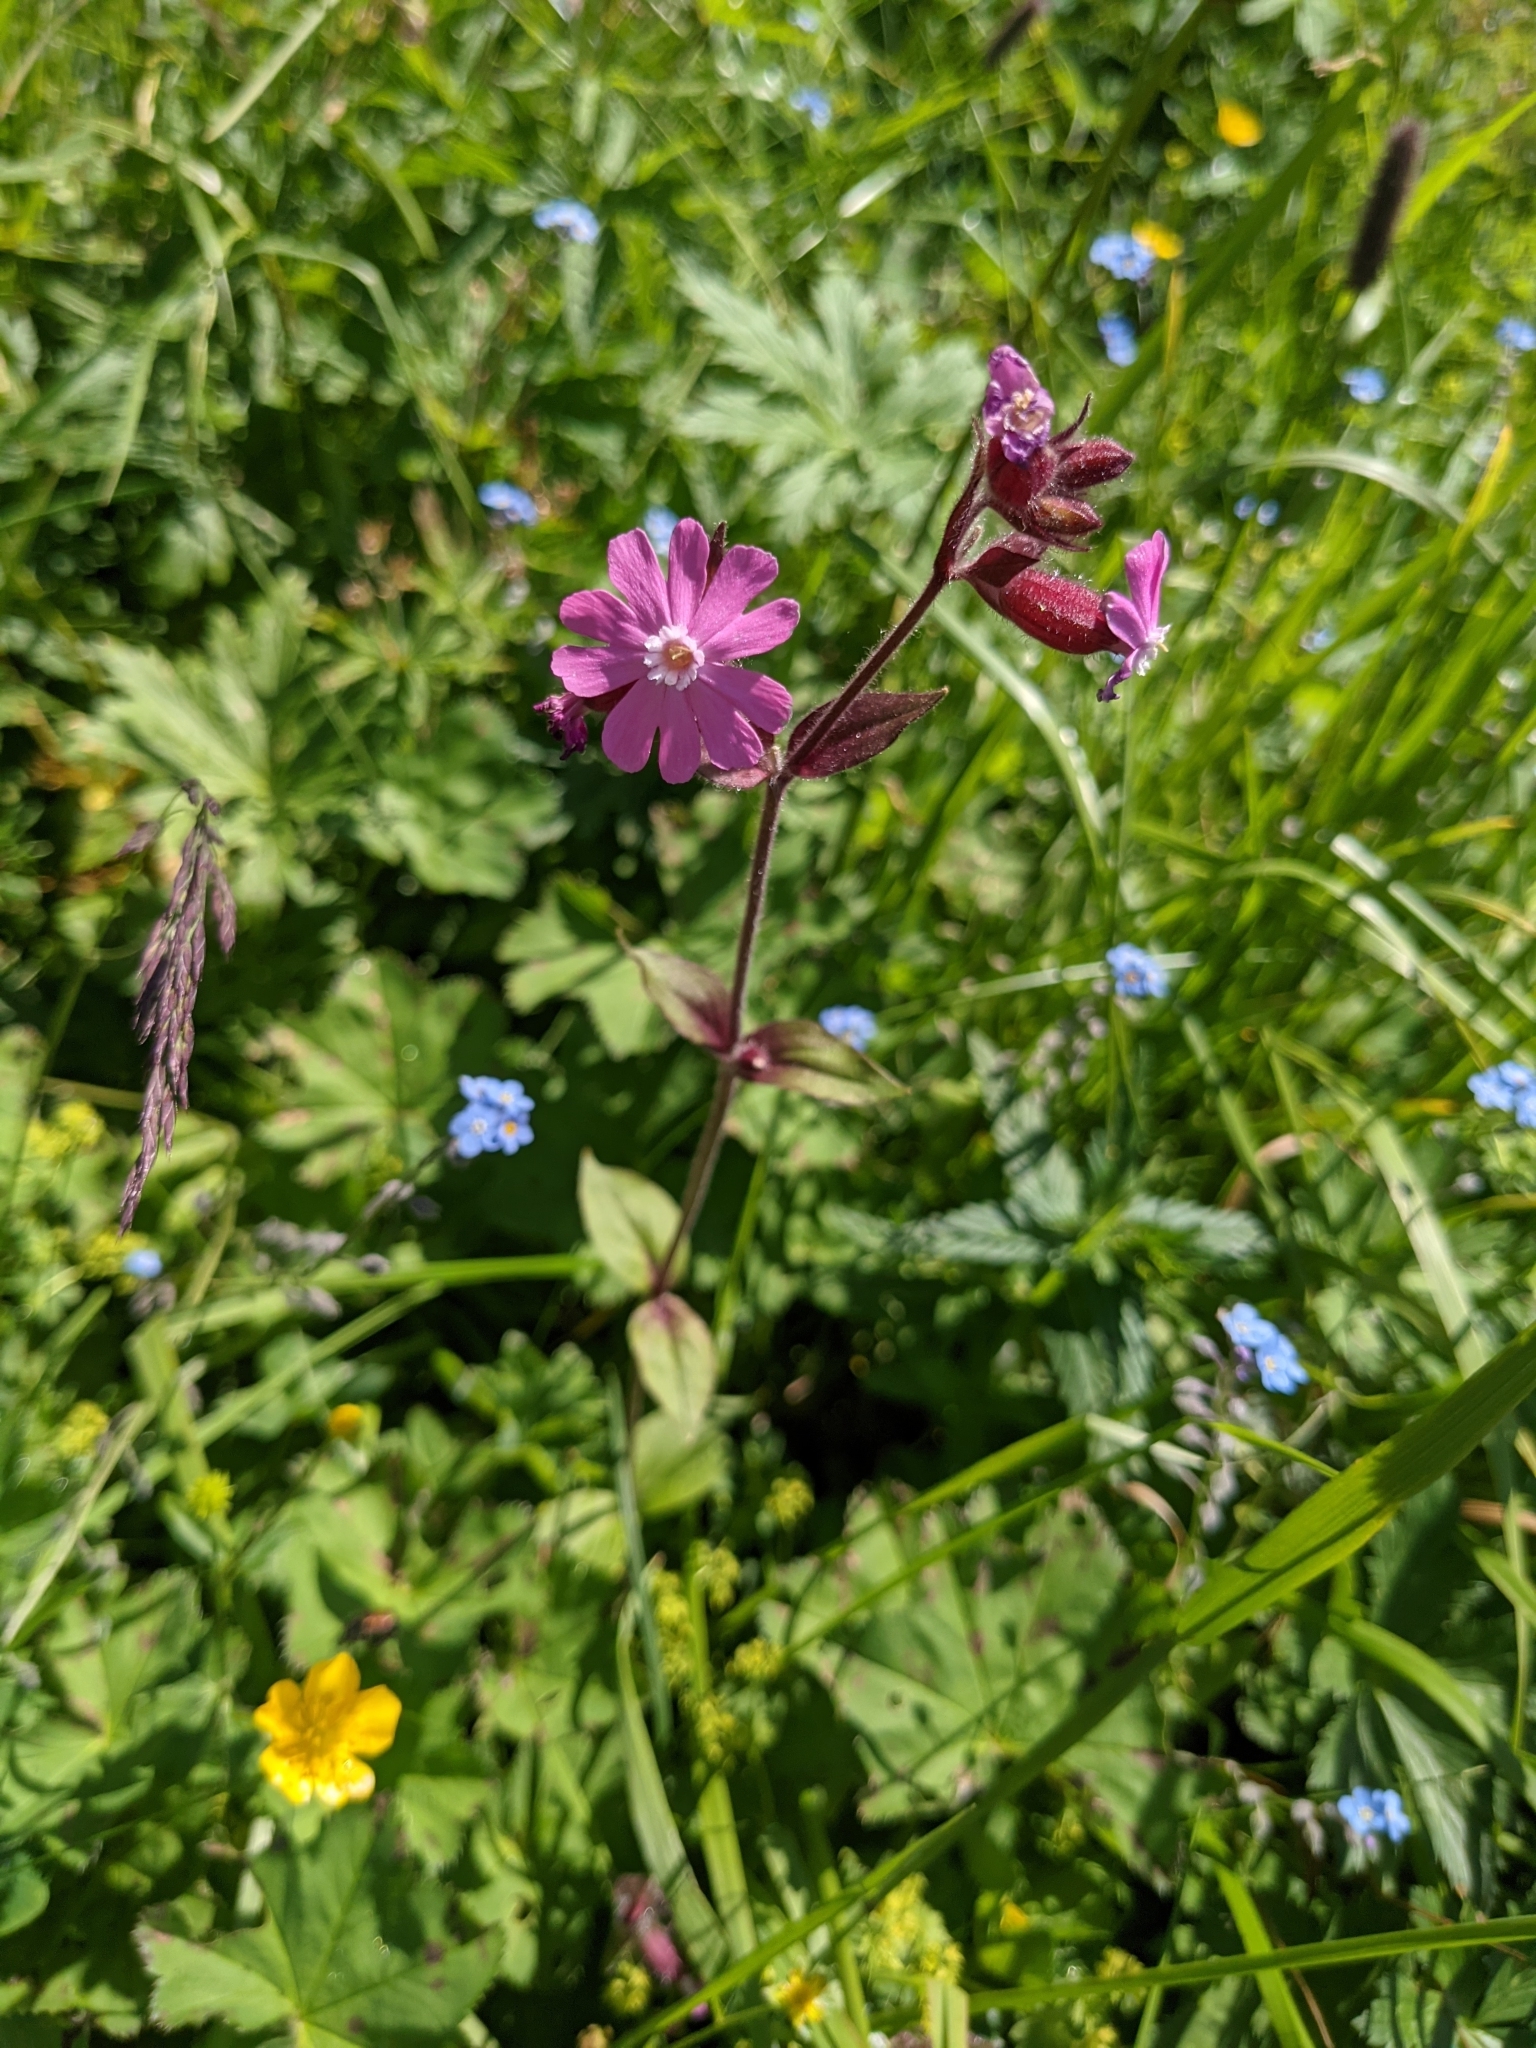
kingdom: Plantae
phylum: Tracheophyta
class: Magnoliopsida
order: Caryophyllales
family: Caryophyllaceae
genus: Silene
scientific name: Silene dioica
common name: Red campion
